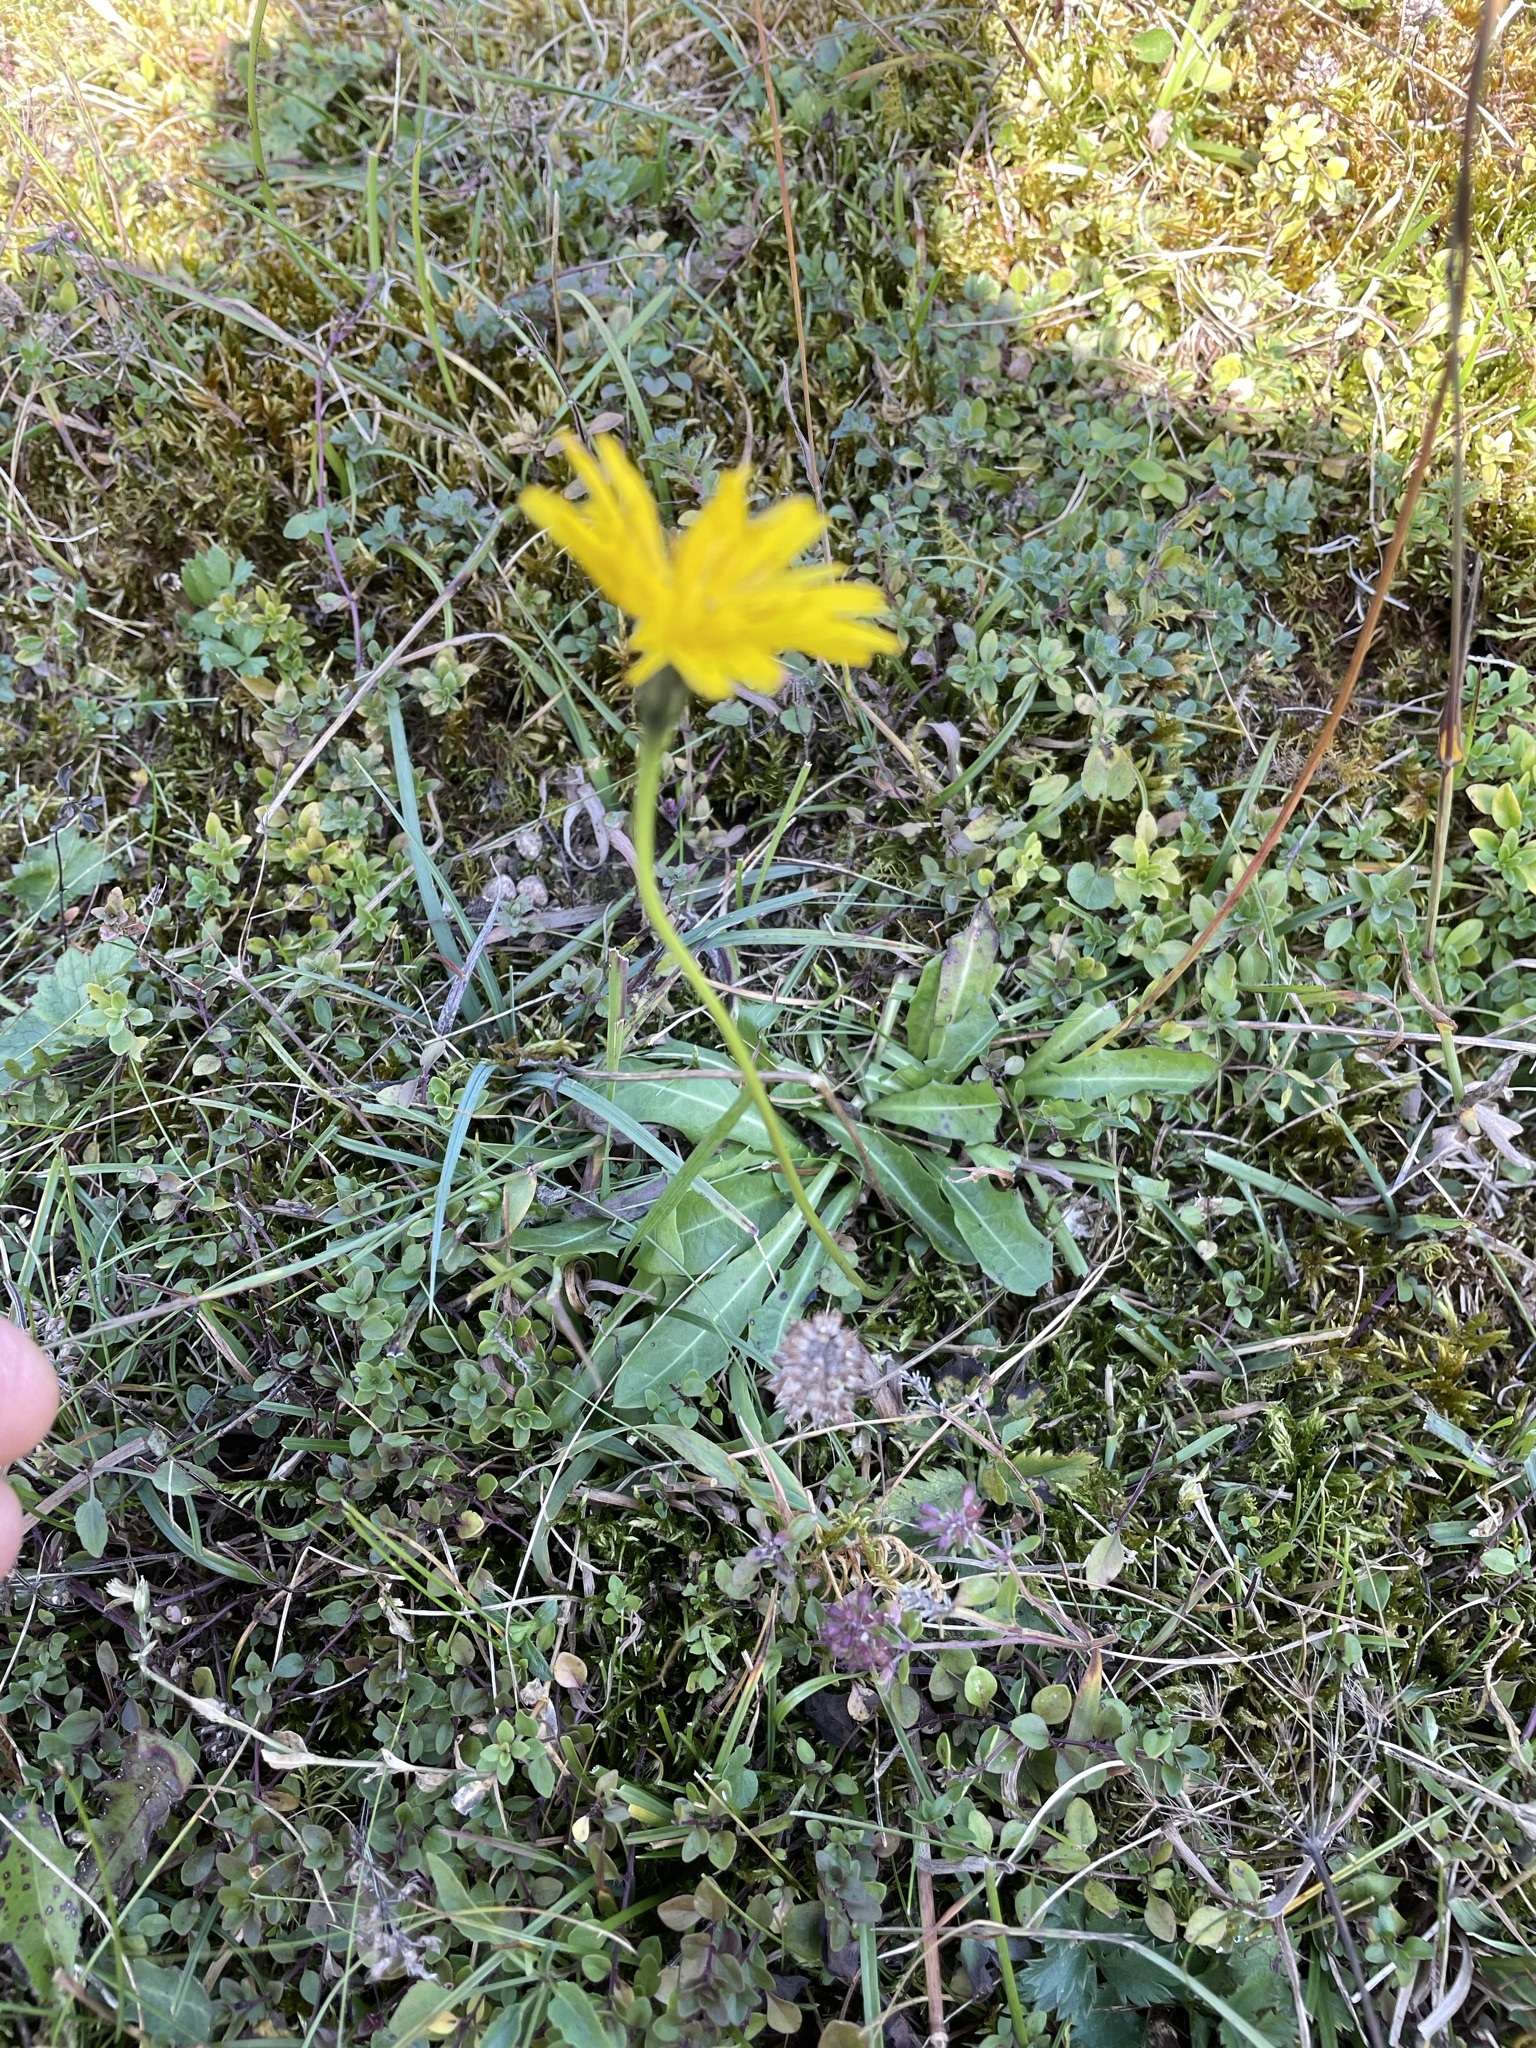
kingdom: Plantae
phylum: Tracheophyta
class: Magnoliopsida
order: Asterales
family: Asteraceae
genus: Leontodon
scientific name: Leontodon hispidus
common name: Rough hawkbit
